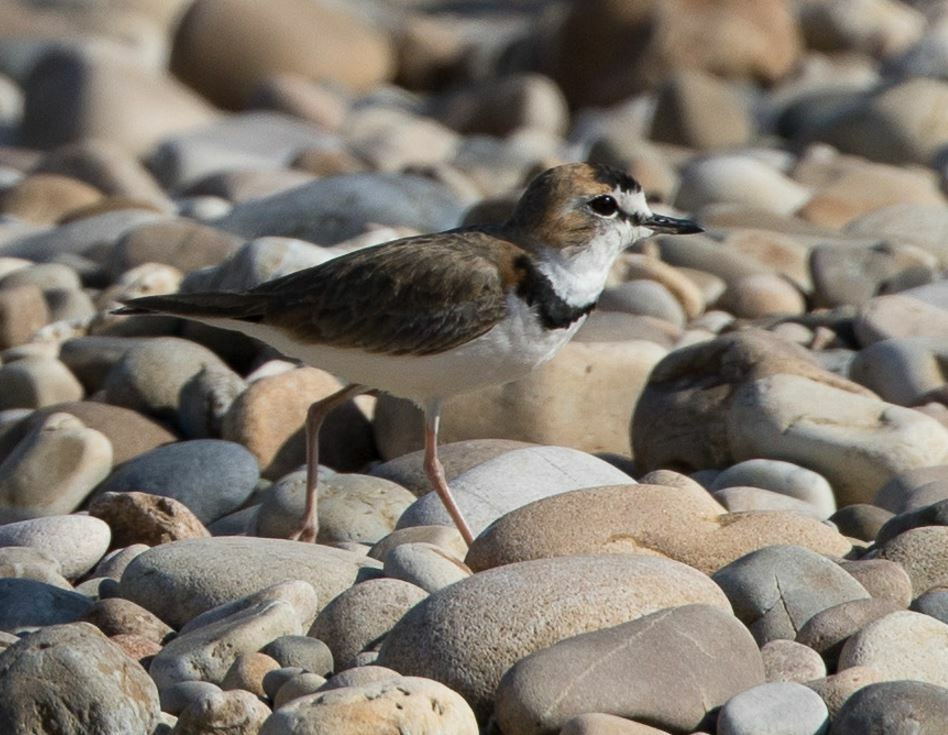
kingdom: Animalia
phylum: Chordata
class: Aves
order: Charadriiformes
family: Charadriidae
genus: Anarhynchus
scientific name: Anarhynchus
